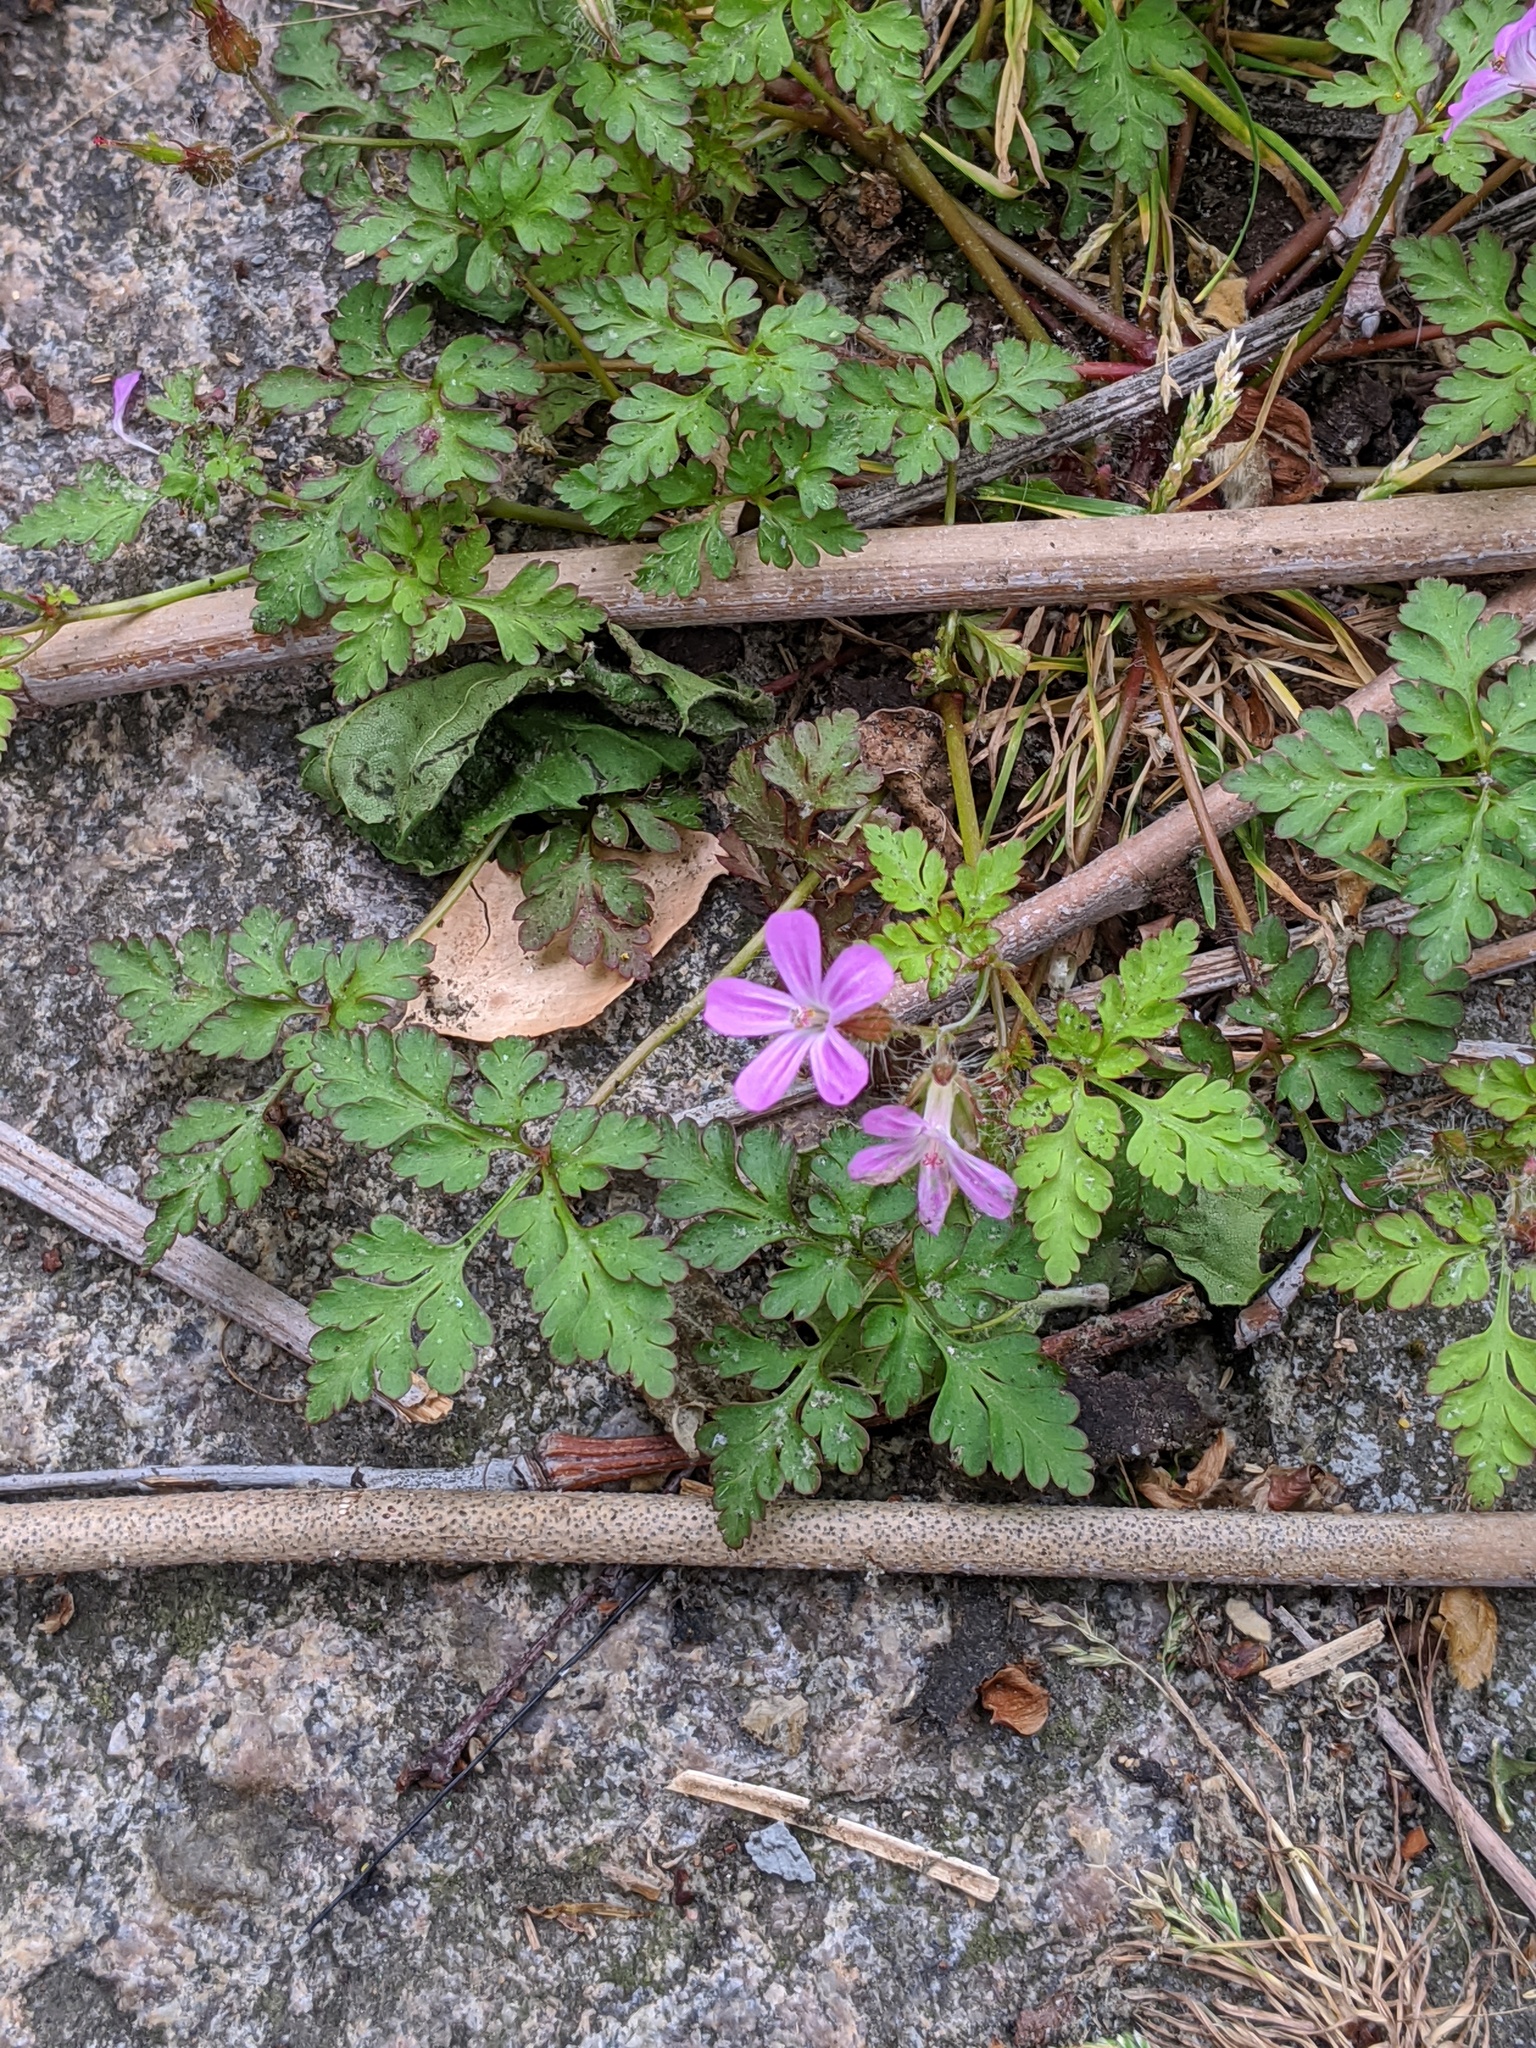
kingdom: Plantae
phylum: Tracheophyta
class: Magnoliopsida
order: Geraniales
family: Geraniaceae
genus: Geranium
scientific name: Geranium robertianum
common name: Herb-robert
